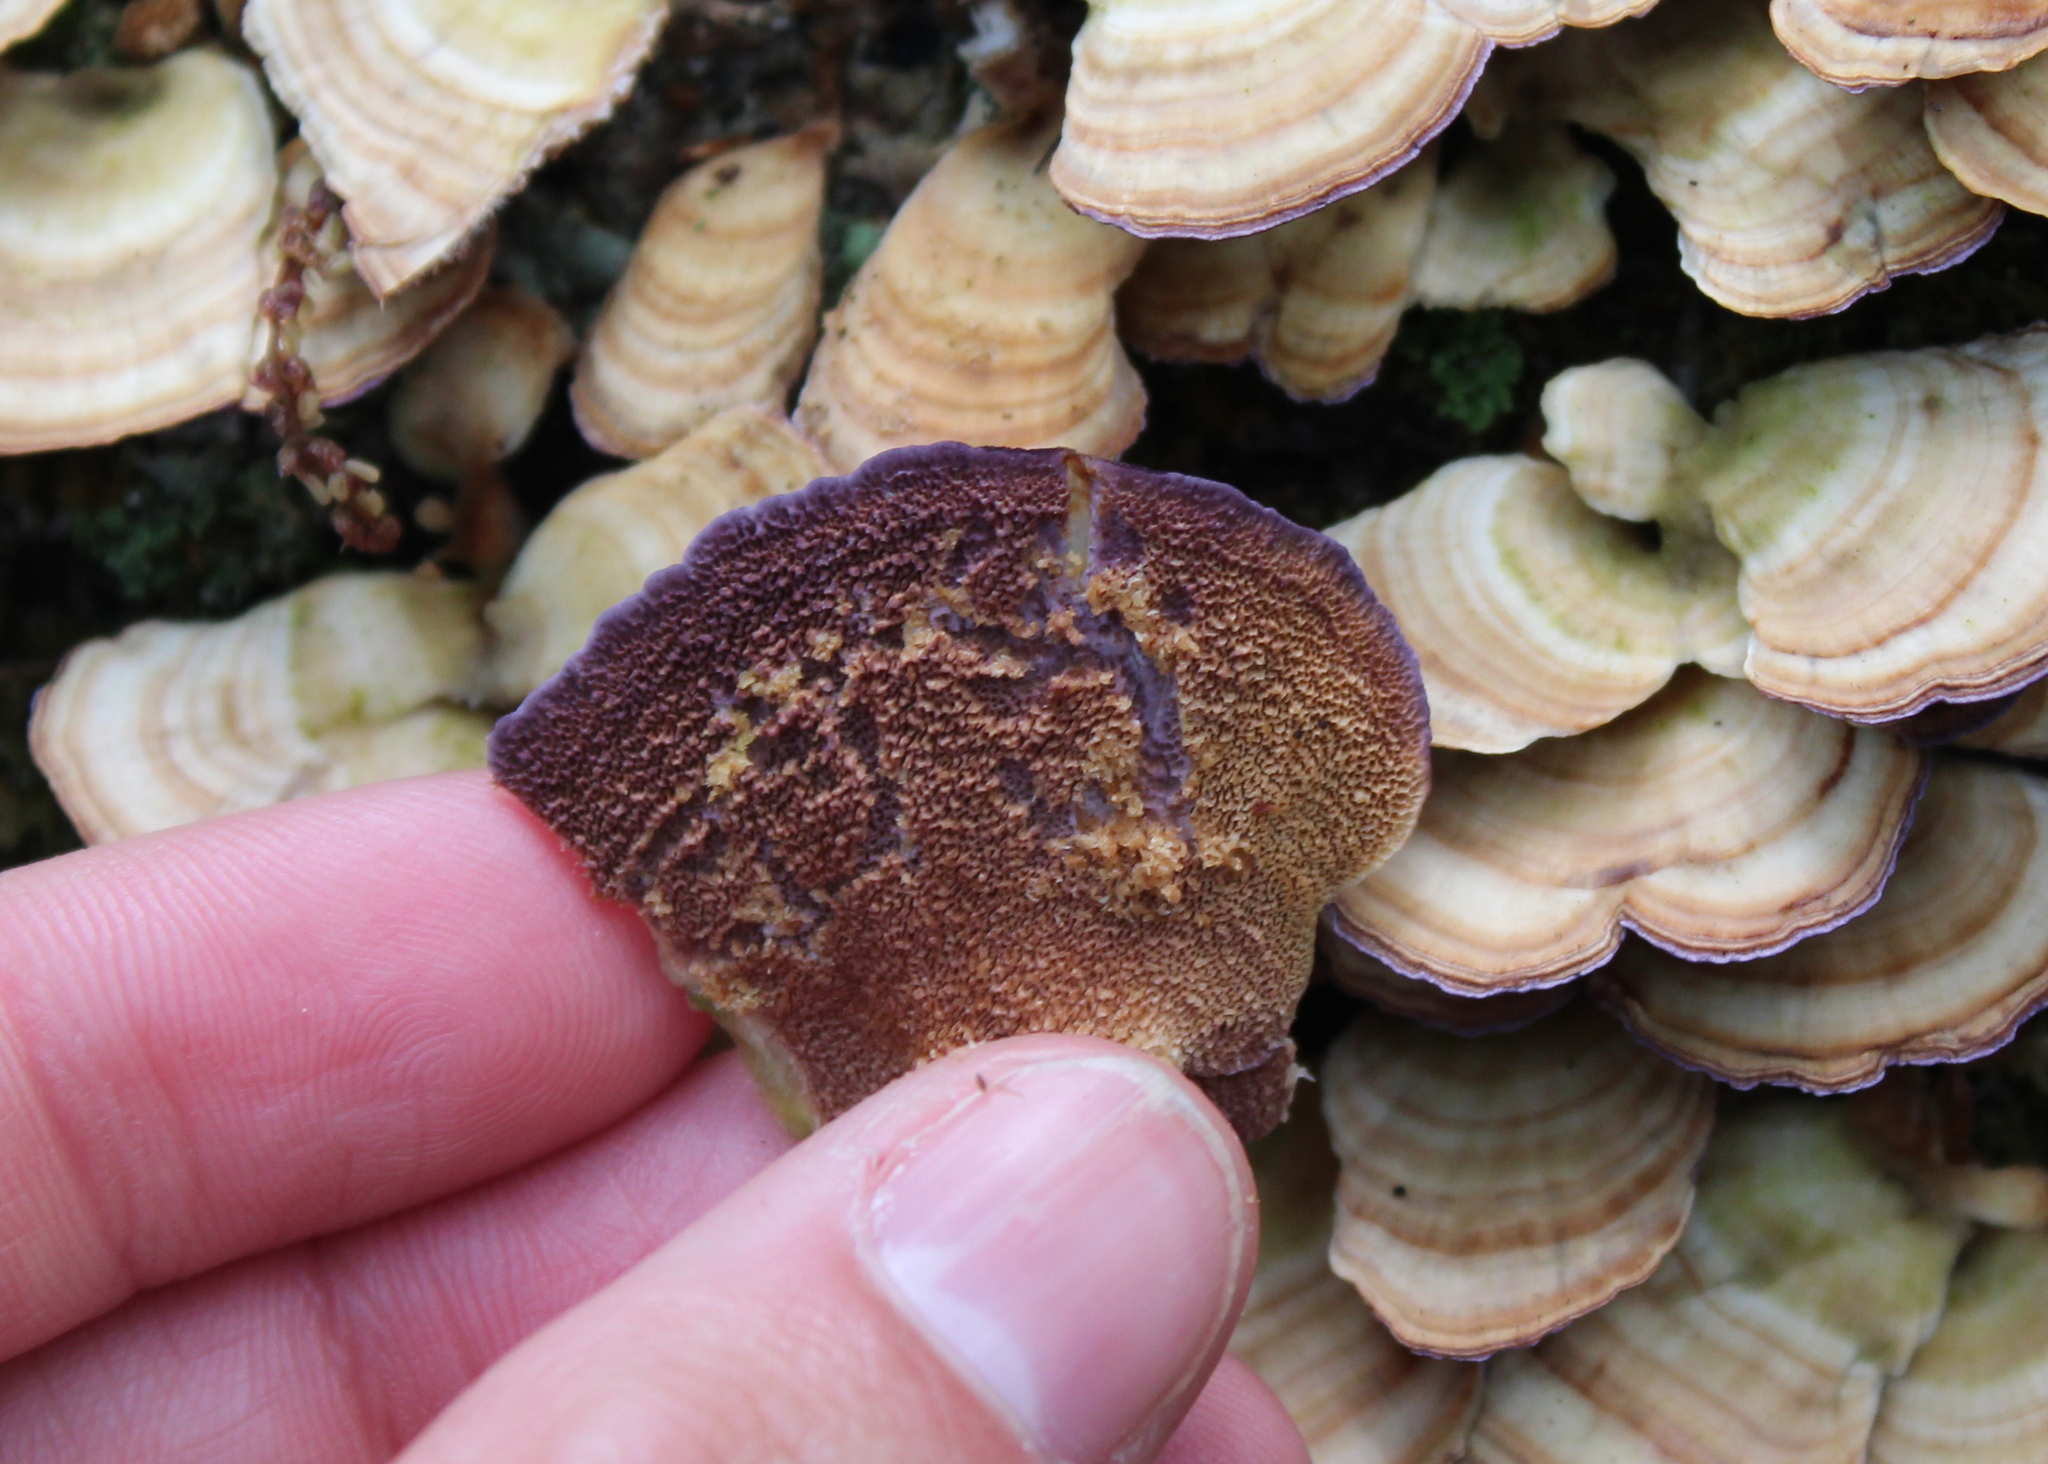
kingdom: Fungi
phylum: Basidiomycota
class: Agaricomycetes
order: Hymenochaetales
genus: Trichaptum
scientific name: Trichaptum biforme
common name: Violet-toothed polypore
